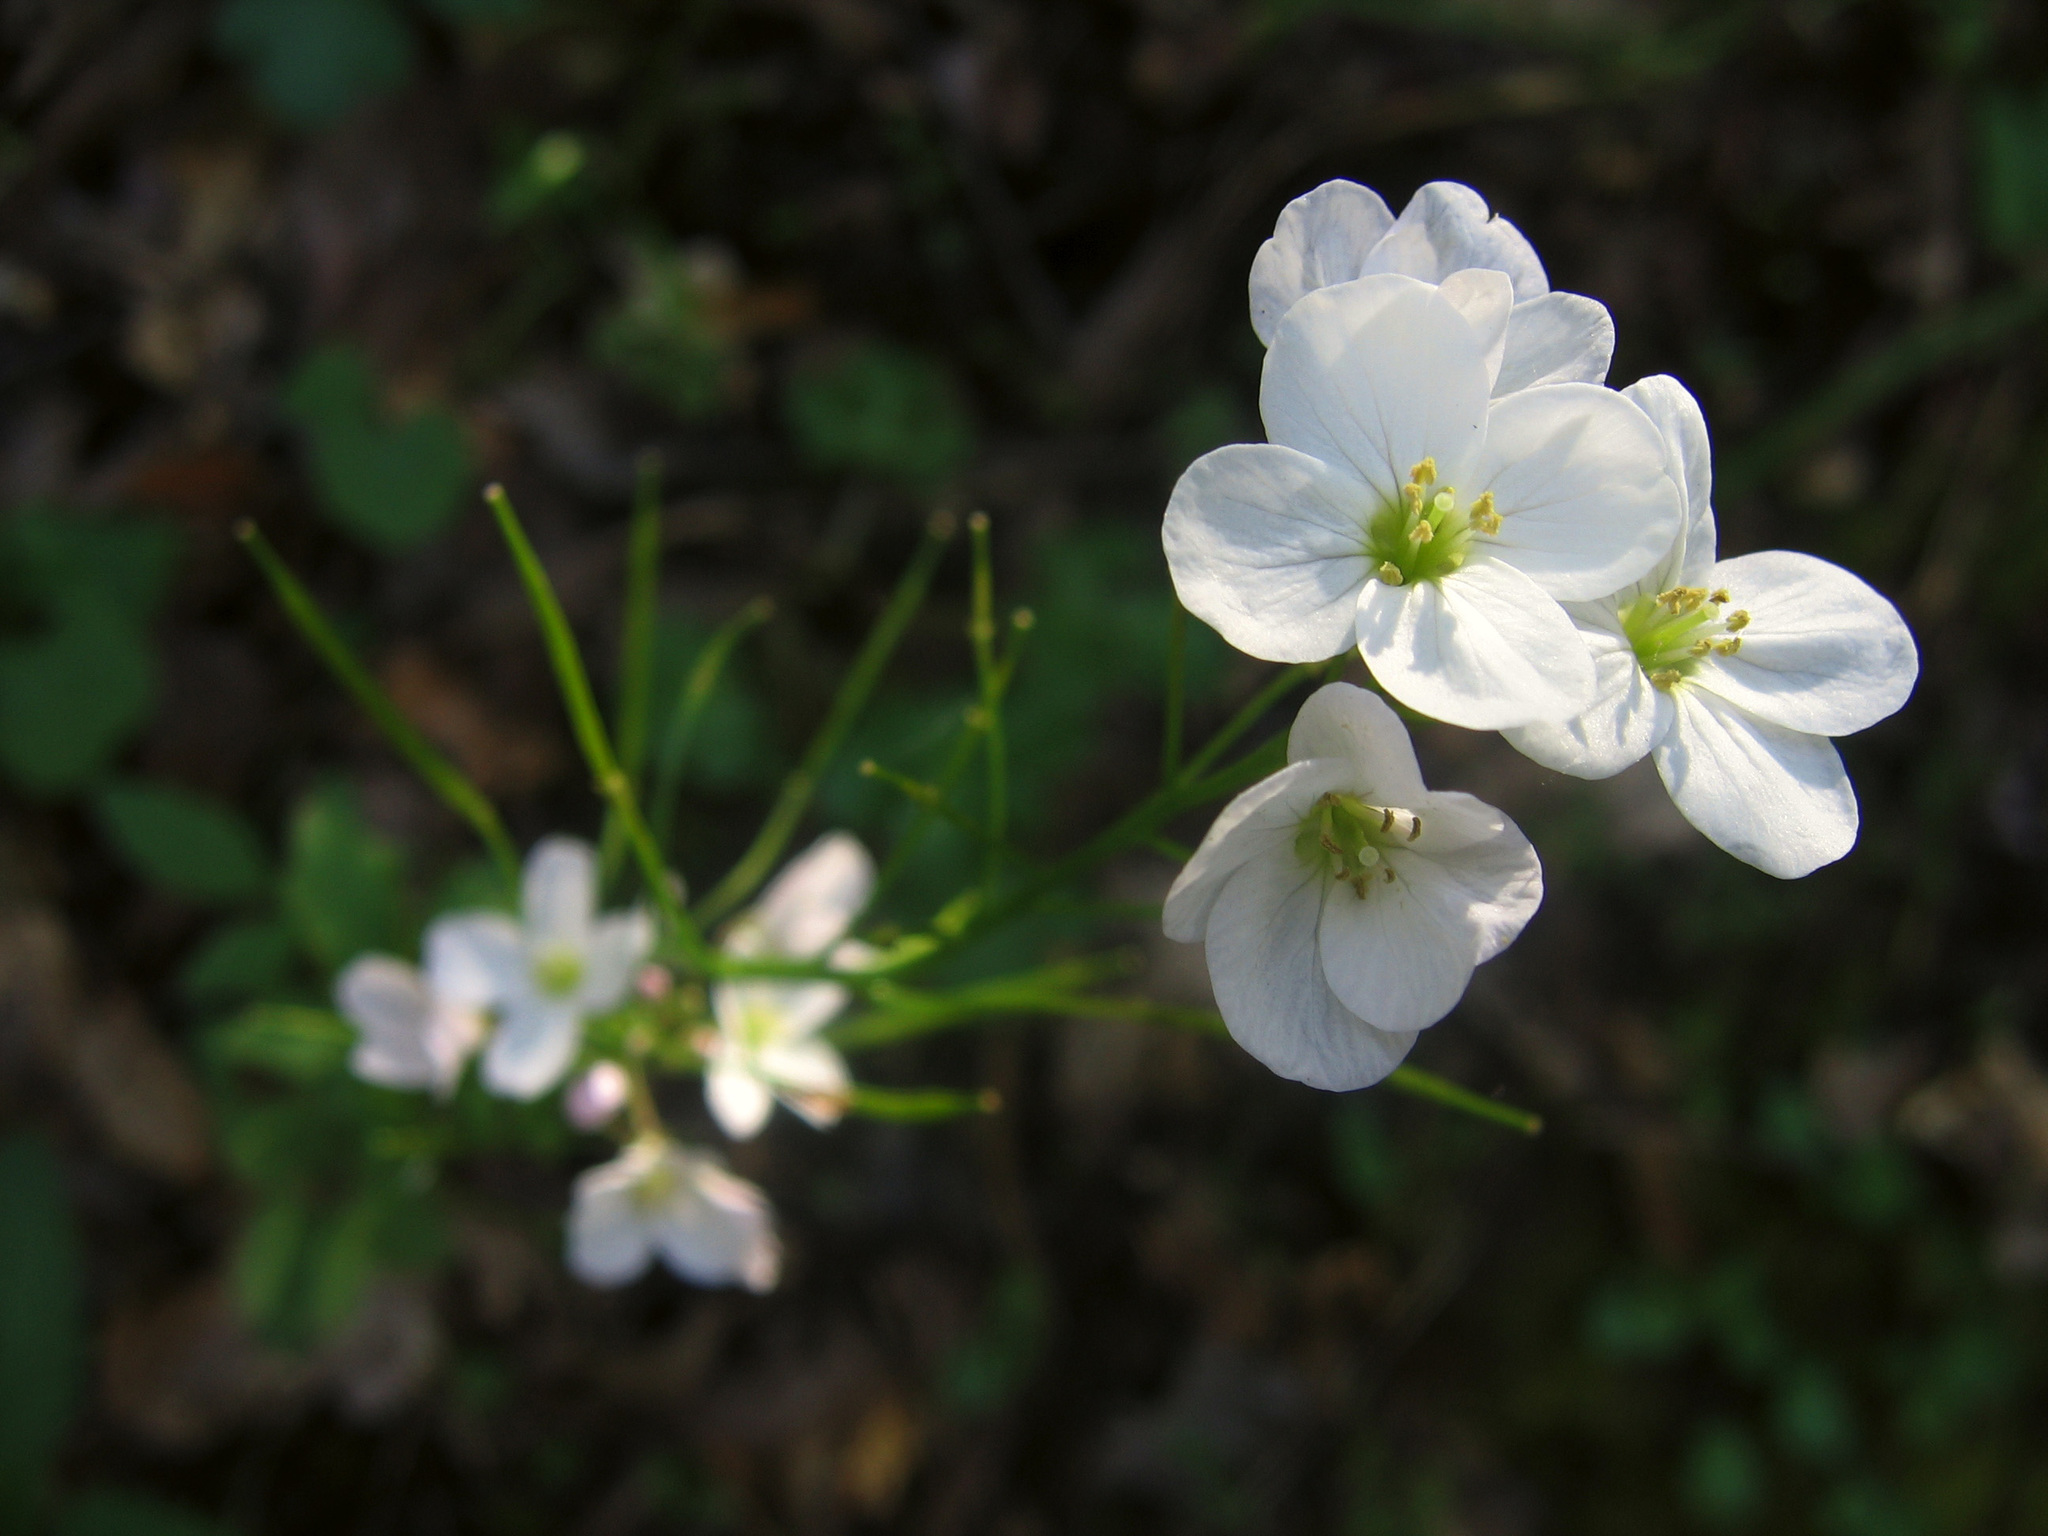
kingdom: Plantae
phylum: Tracheophyta
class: Magnoliopsida
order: Brassicales
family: Brassicaceae
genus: Cardamine
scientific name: Cardamine californica
